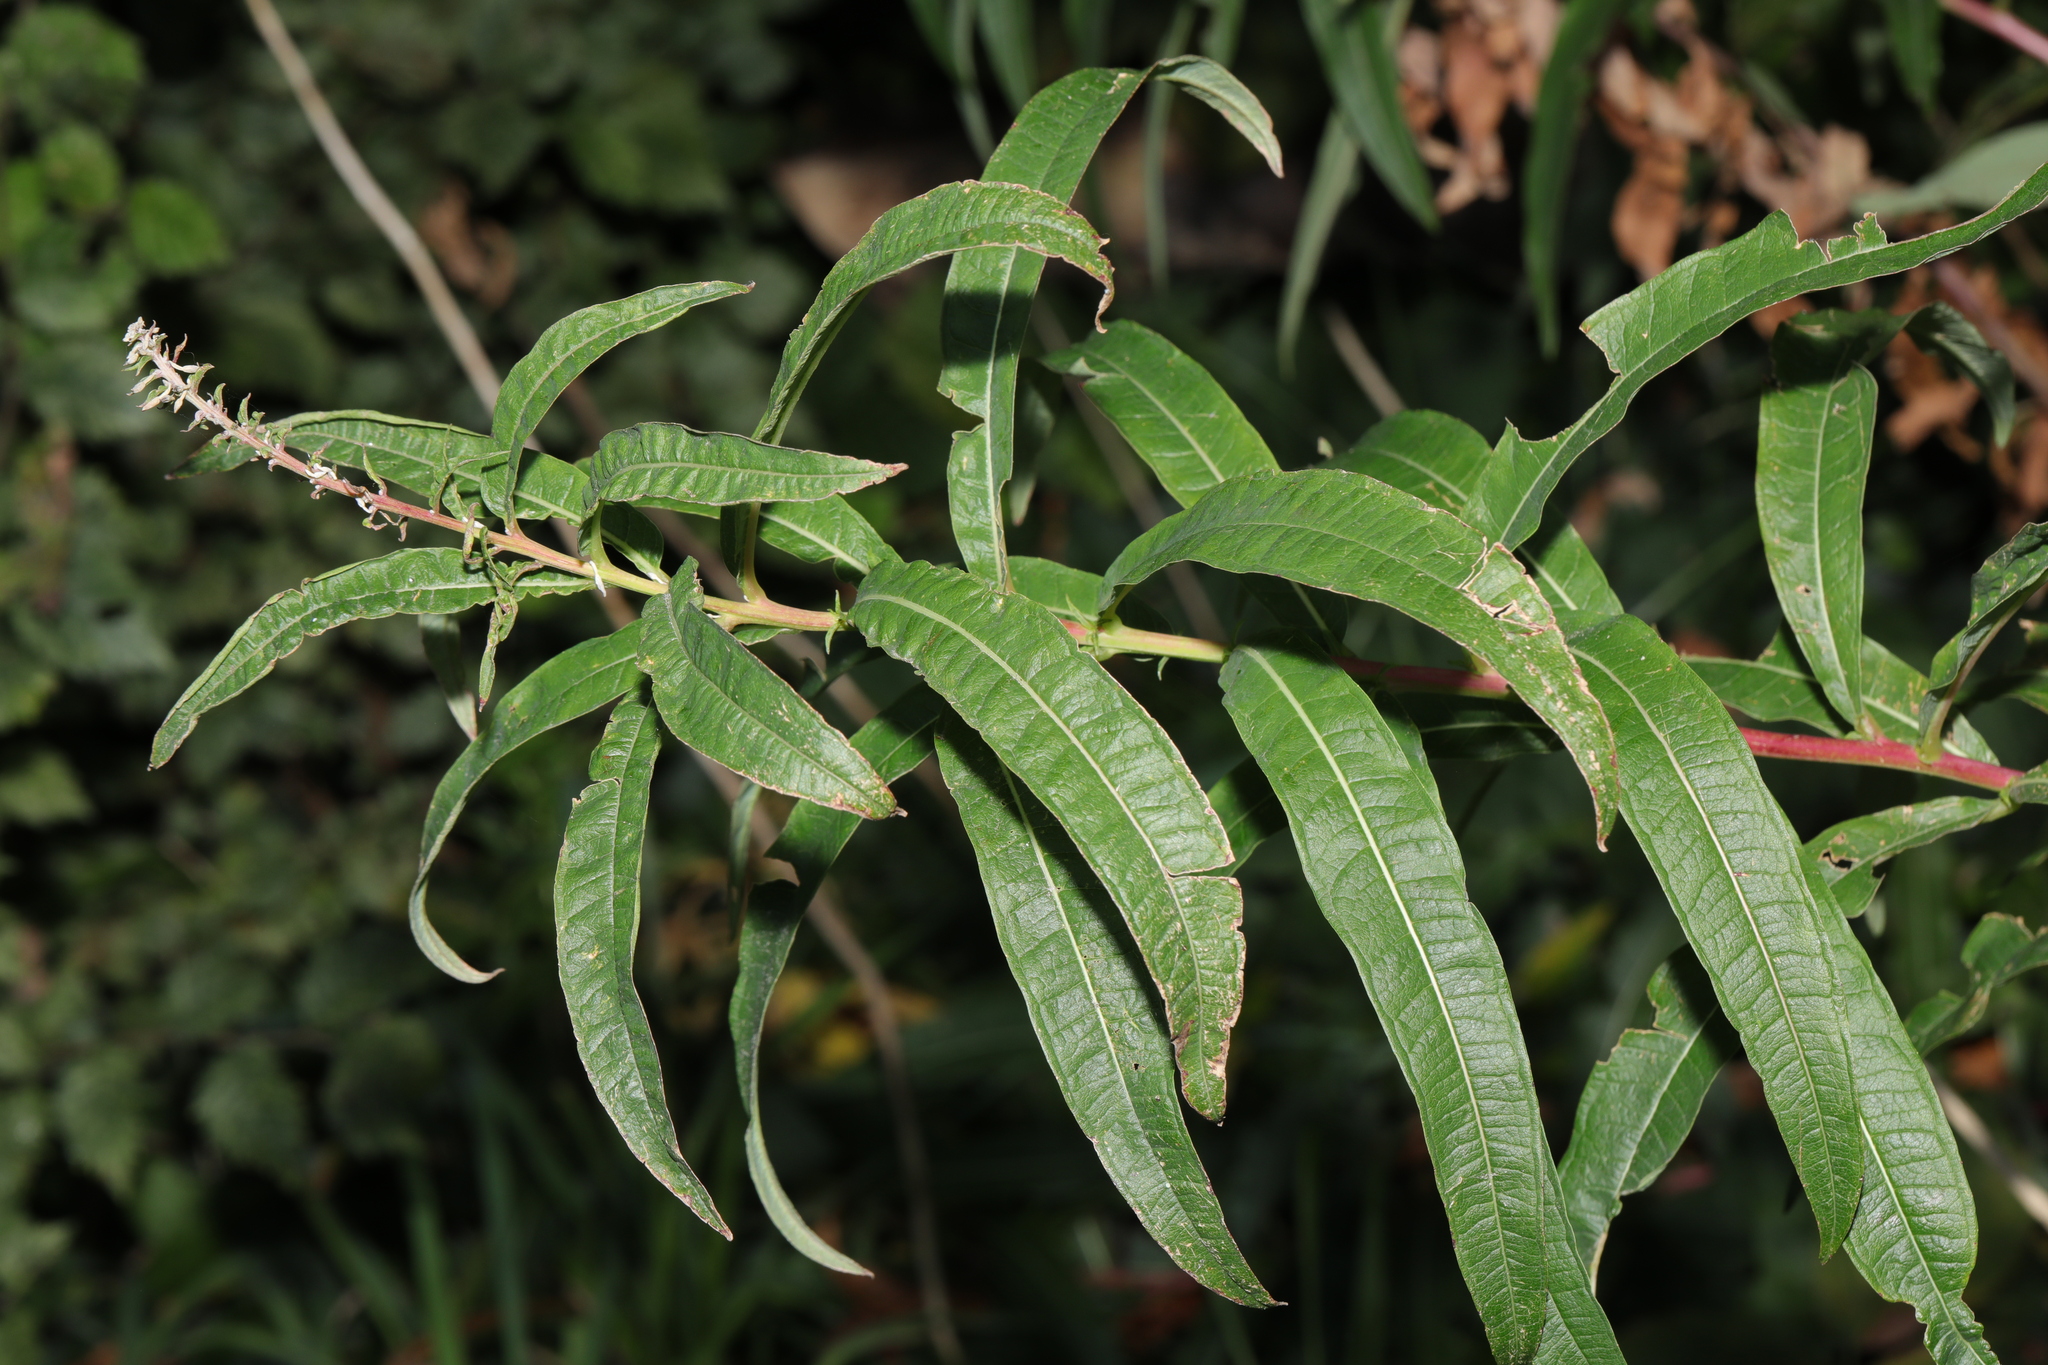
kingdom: Plantae
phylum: Tracheophyta
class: Magnoliopsida
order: Myrtales
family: Onagraceae
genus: Chamaenerion
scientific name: Chamaenerion angustifolium
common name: Fireweed
